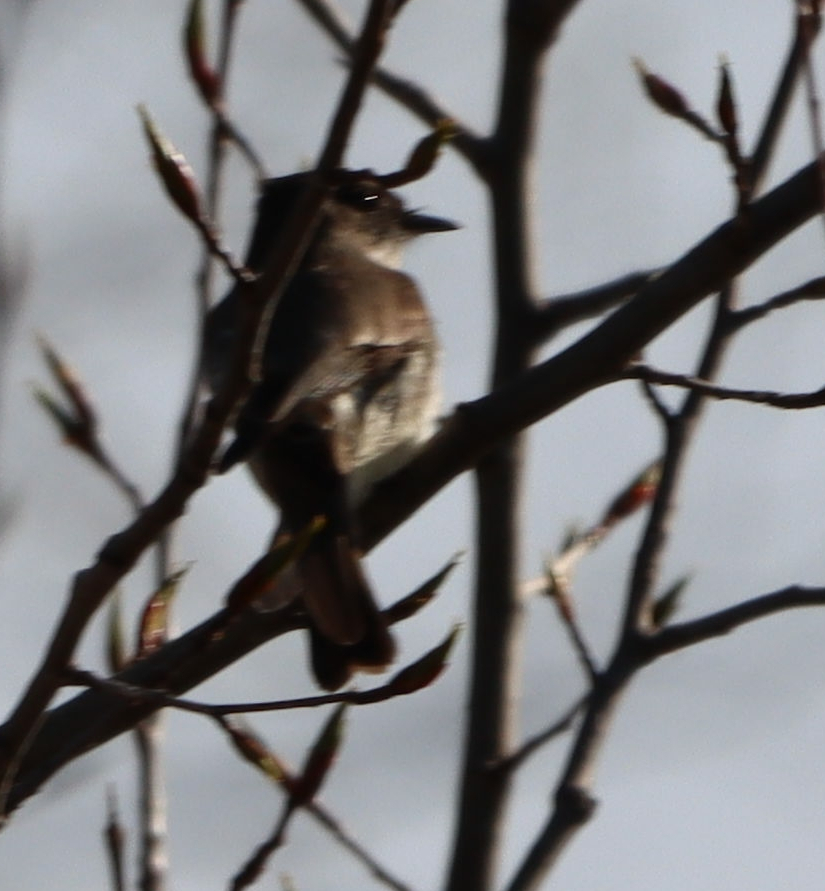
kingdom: Animalia
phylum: Chordata
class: Aves
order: Passeriformes
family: Tyrannidae
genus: Sayornis
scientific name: Sayornis phoebe
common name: Eastern phoebe
